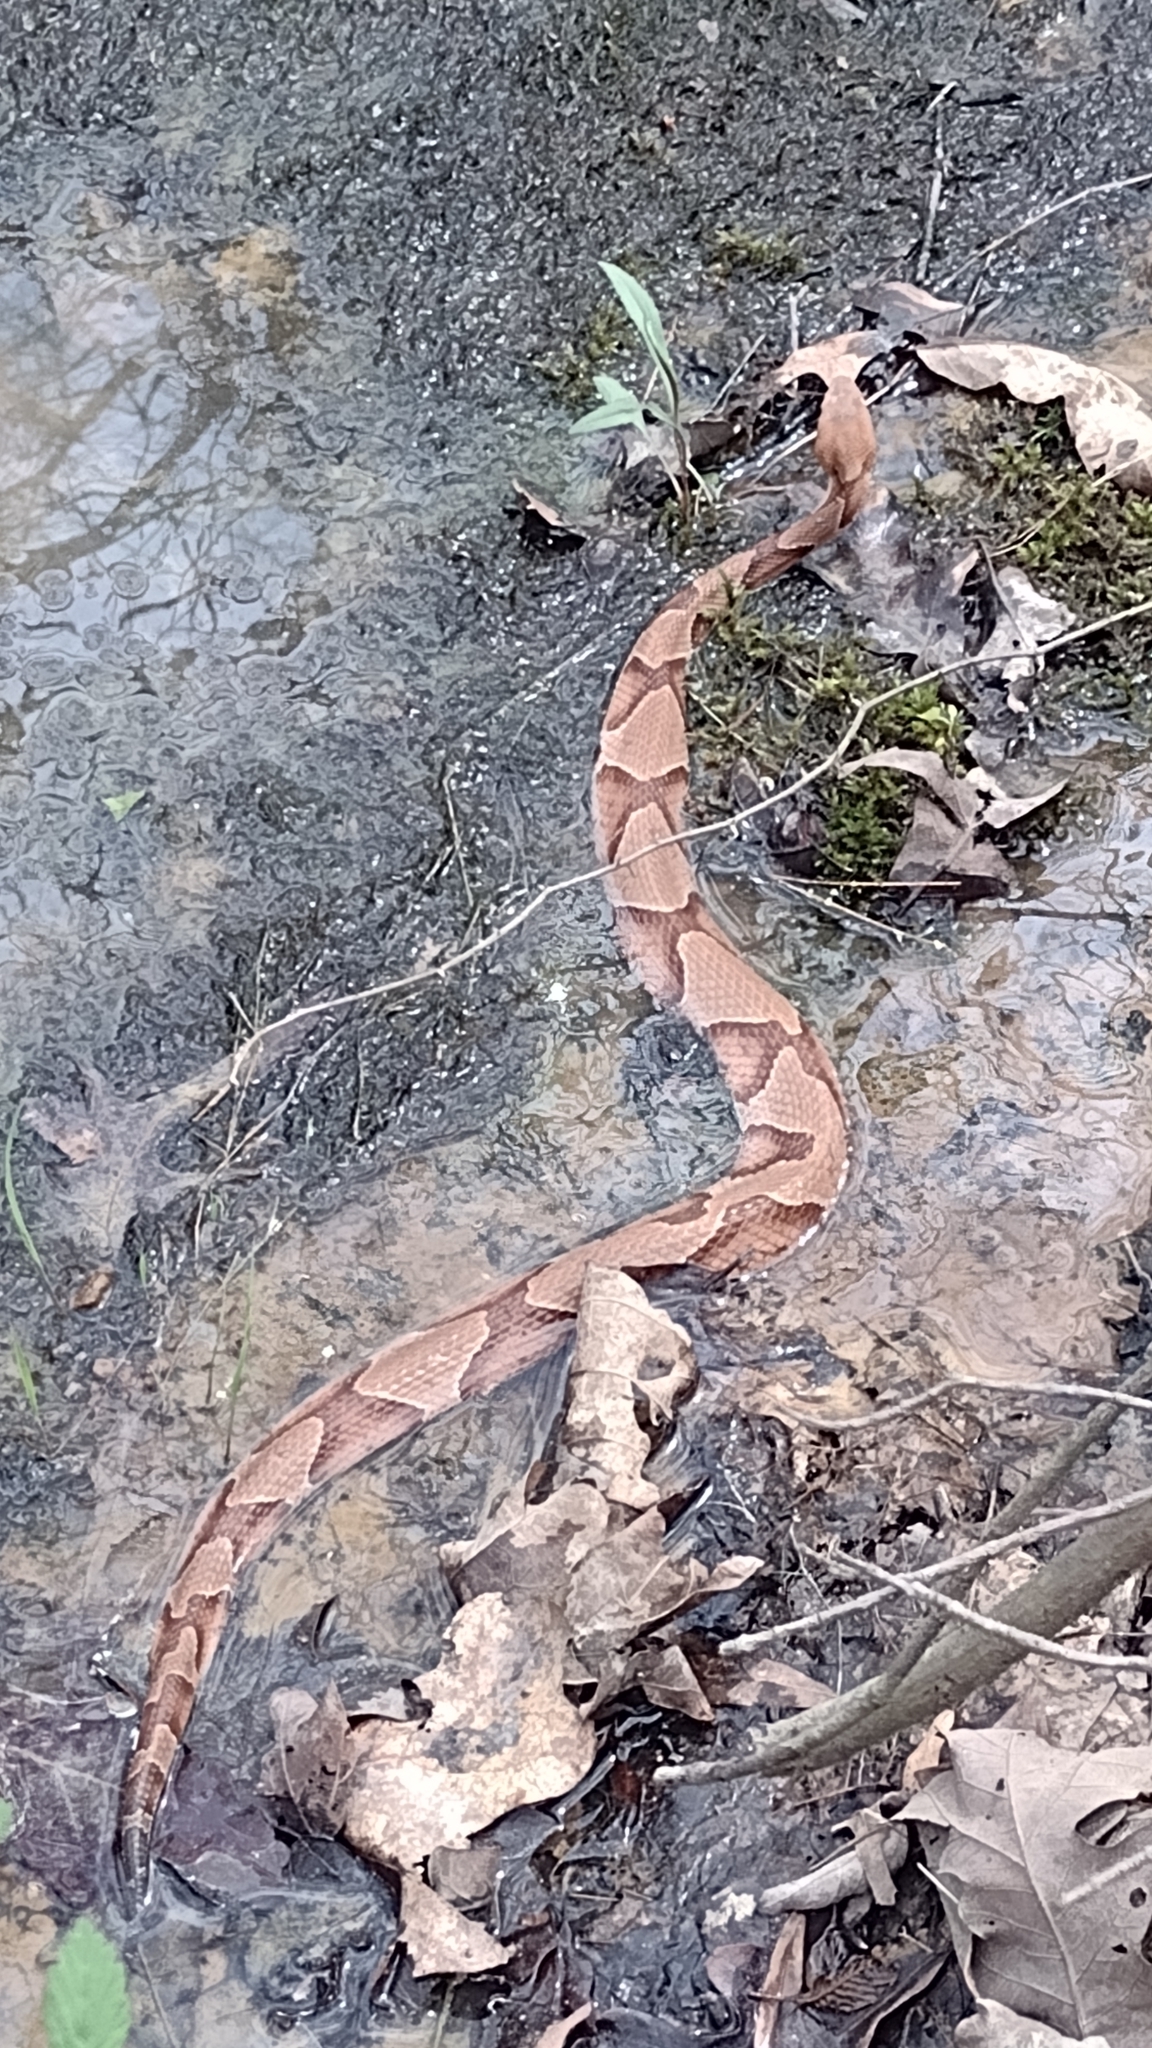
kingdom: Animalia
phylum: Chordata
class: Squamata
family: Viperidae
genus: Agkistrodon
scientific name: Agkistrodon contortrix
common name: Northern copperhead
